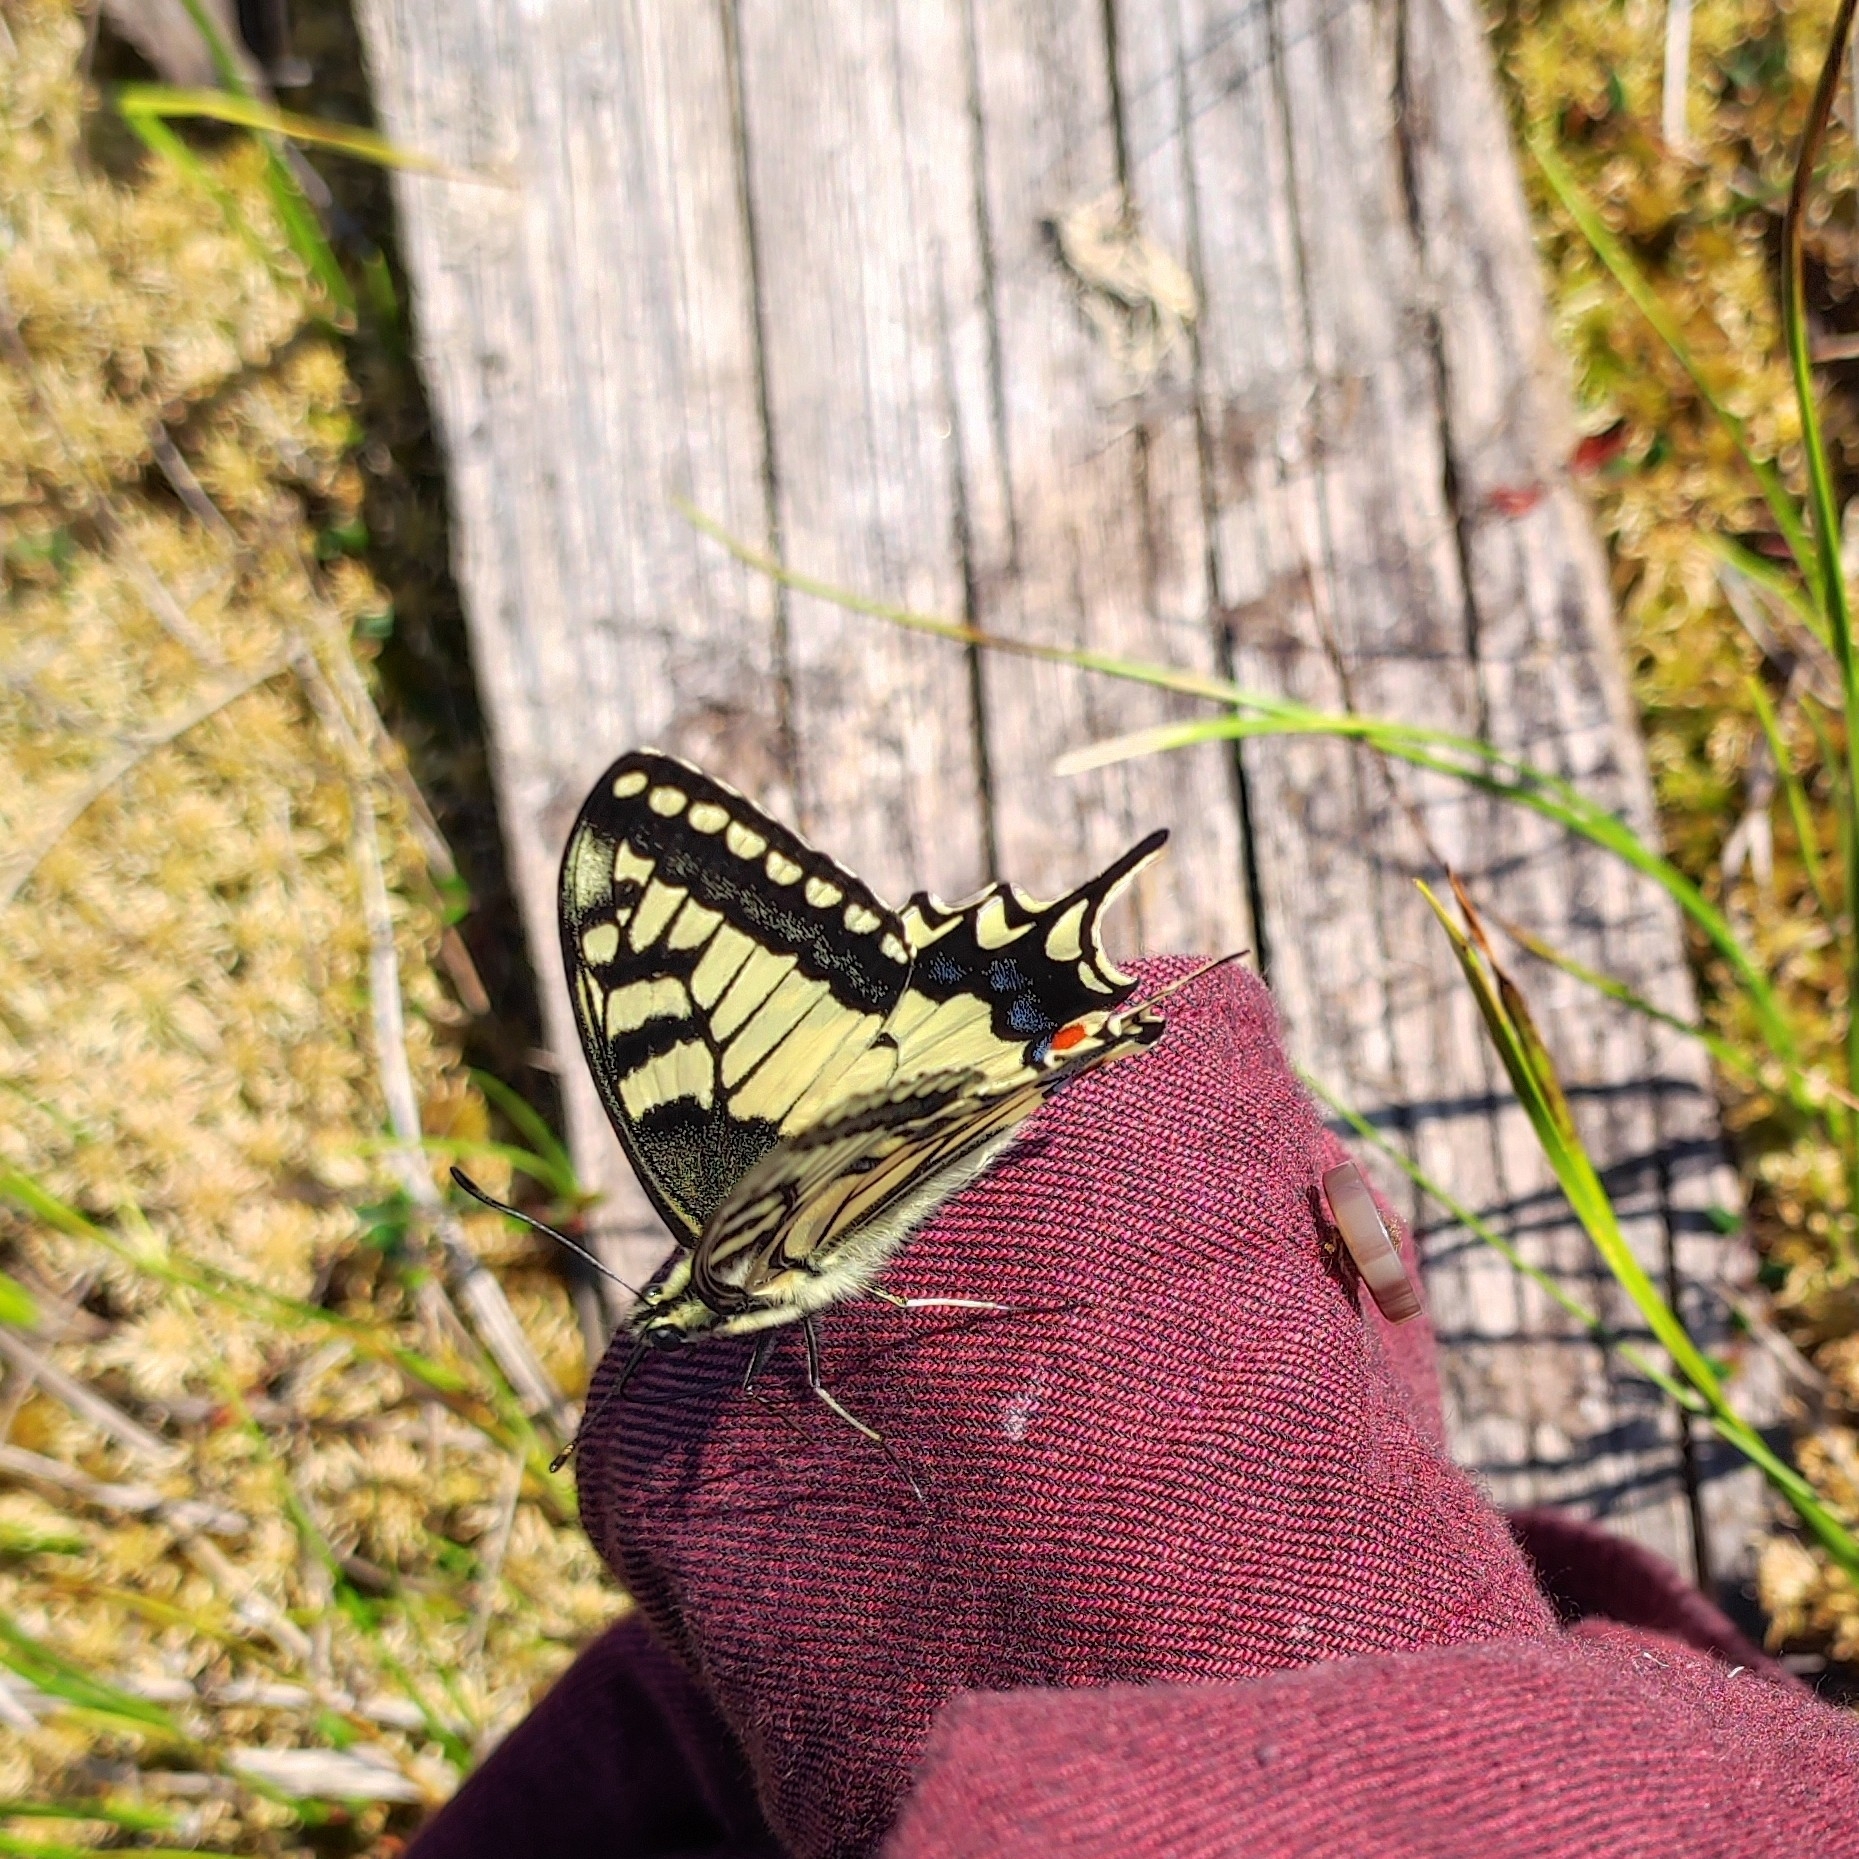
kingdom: Animalia
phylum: Arthropoda
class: Insecta
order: Lepidoptera
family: Papilionidae
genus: Papilio
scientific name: Papilio machaon
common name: Swallowtail
